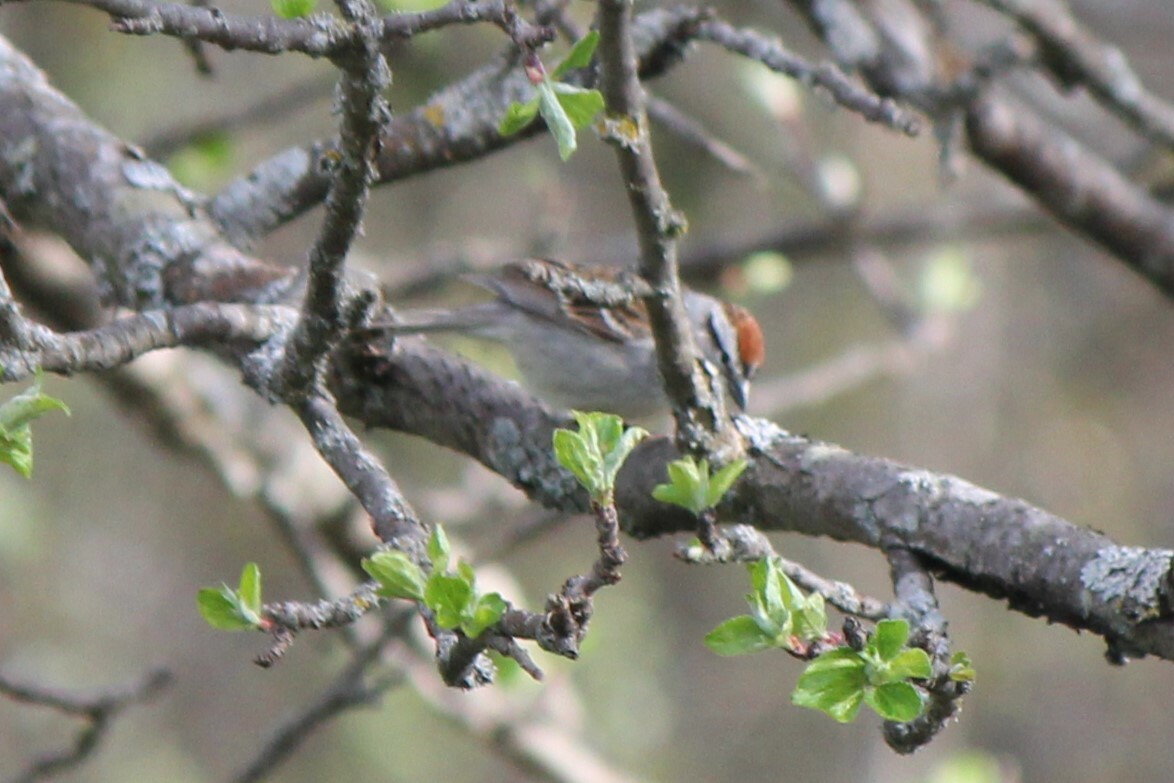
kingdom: Animalia
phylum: Chordata
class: Aves
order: Passeriformes
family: Passerellidae
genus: Spizella
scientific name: Spizella passerina
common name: Chipping sparrow
